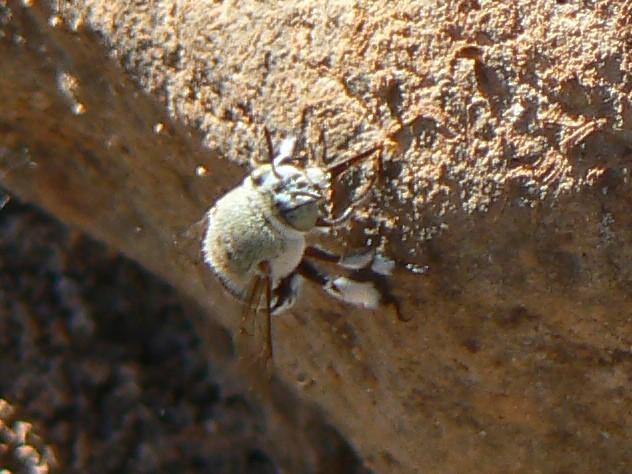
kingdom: Animalia
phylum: Arthropoda
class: Insecta
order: Hymenoptera
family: Apidae
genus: Amegilla
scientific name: Amegilla chlorocyanea
